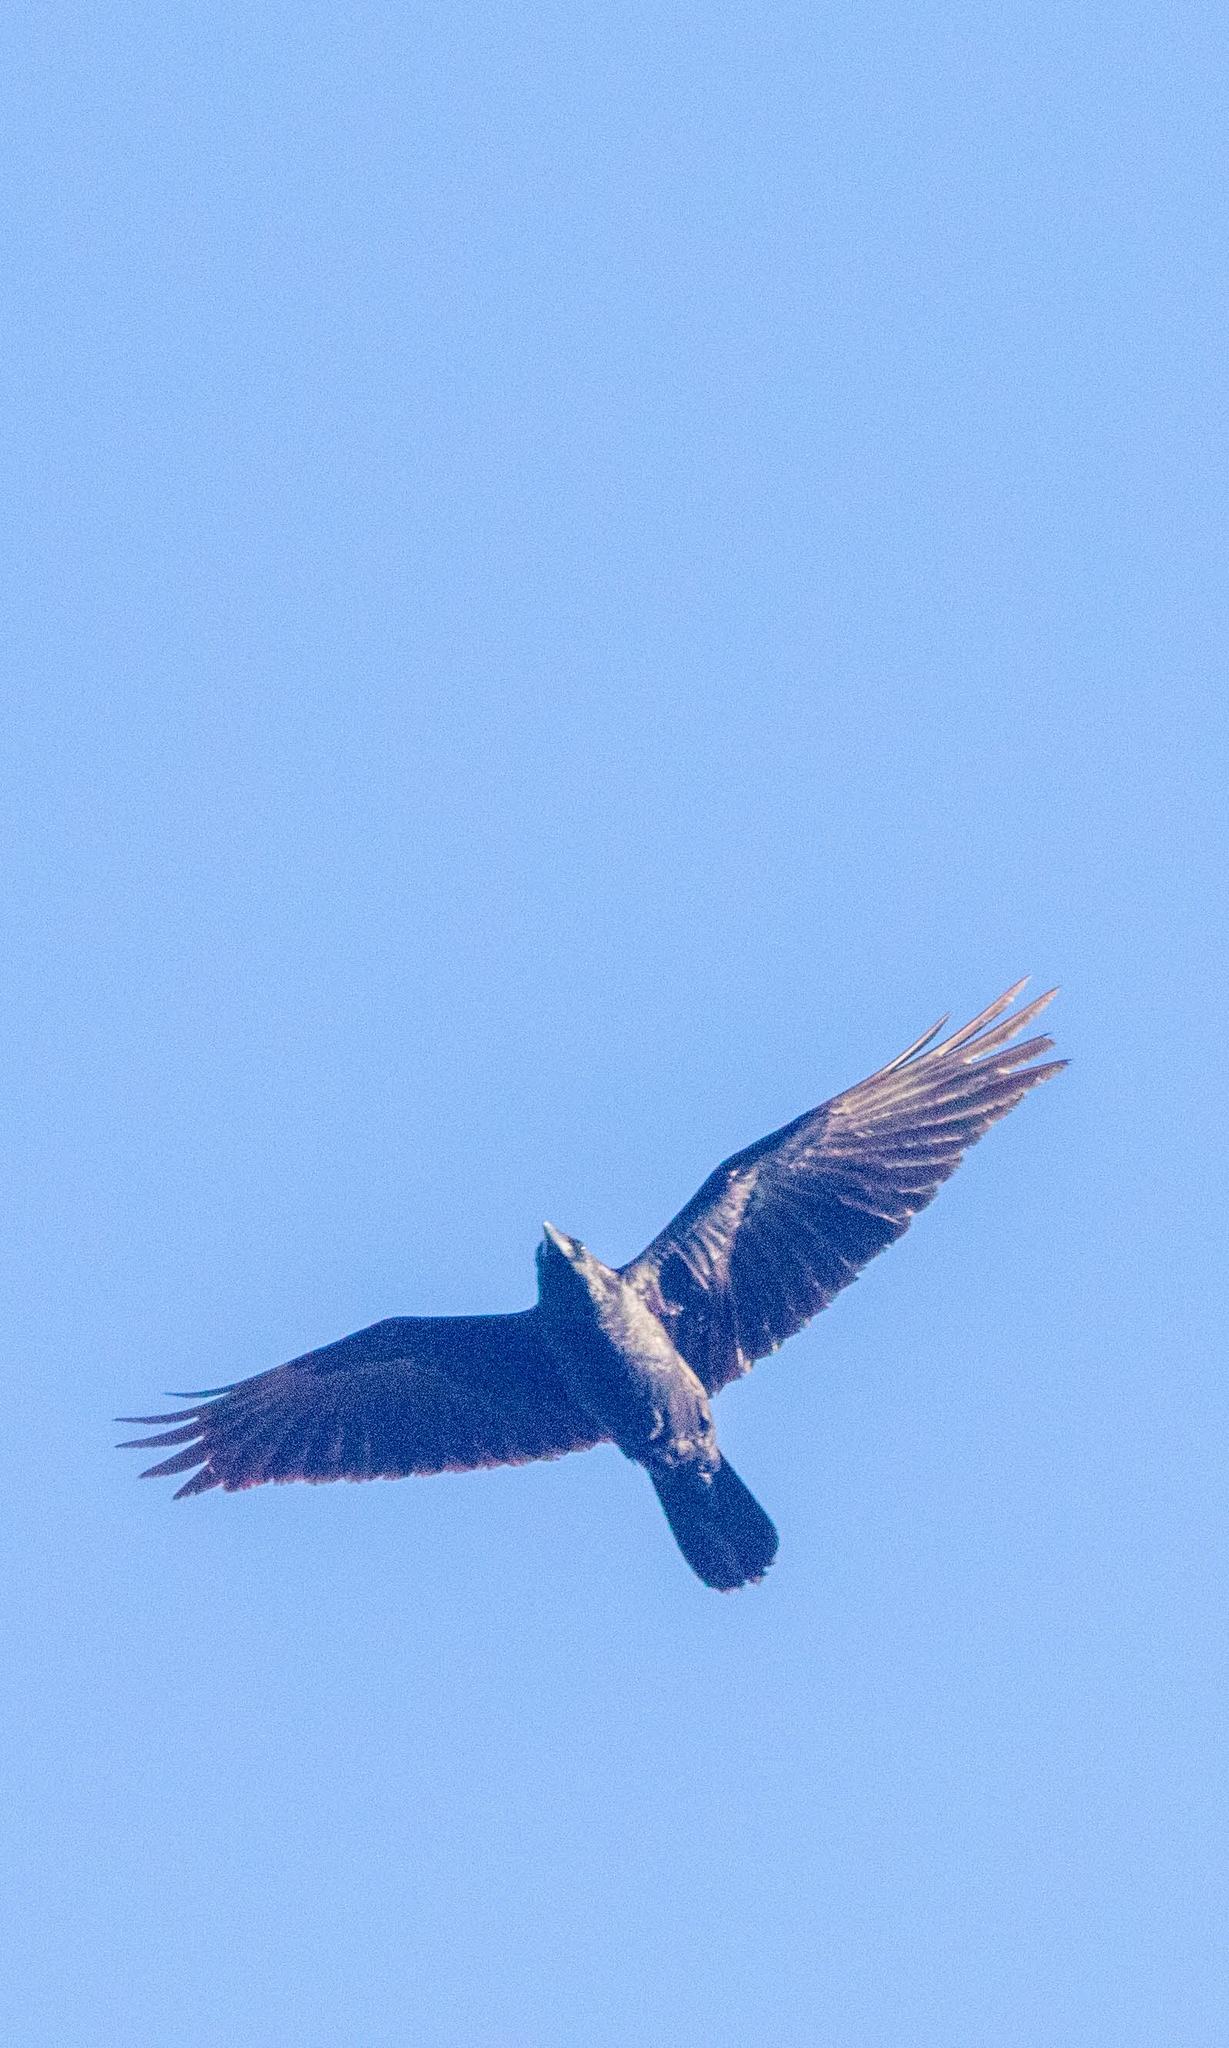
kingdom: Animalia
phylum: Chordata
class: Aves
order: Passeriformes
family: Corvidae
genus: Corvus
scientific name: Corvus cryptoleucus
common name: Chihuahuan raven
